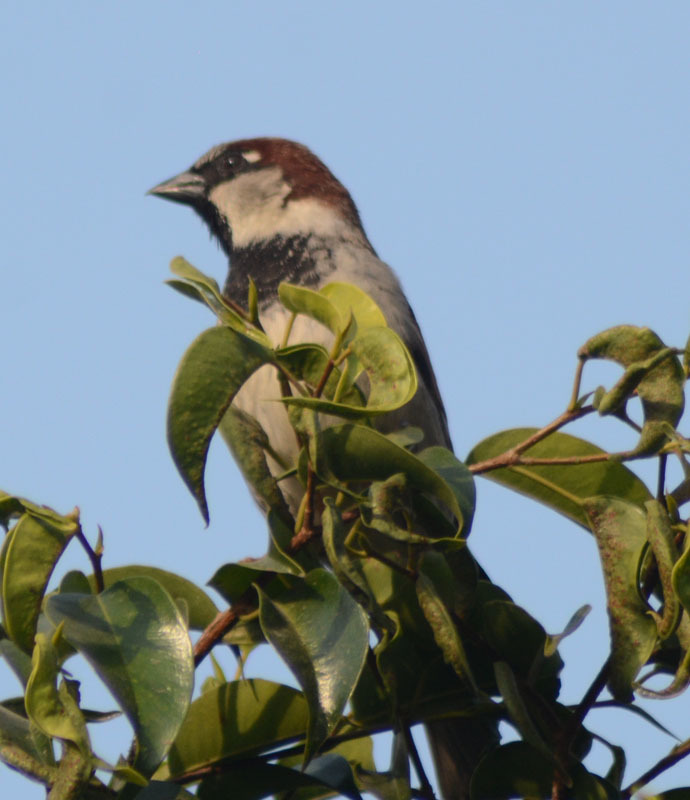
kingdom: Animalia
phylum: Chordata
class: Aves
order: Passeriformes
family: Passeridae
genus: Passer
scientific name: Passer domesticus
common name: House sparrow
